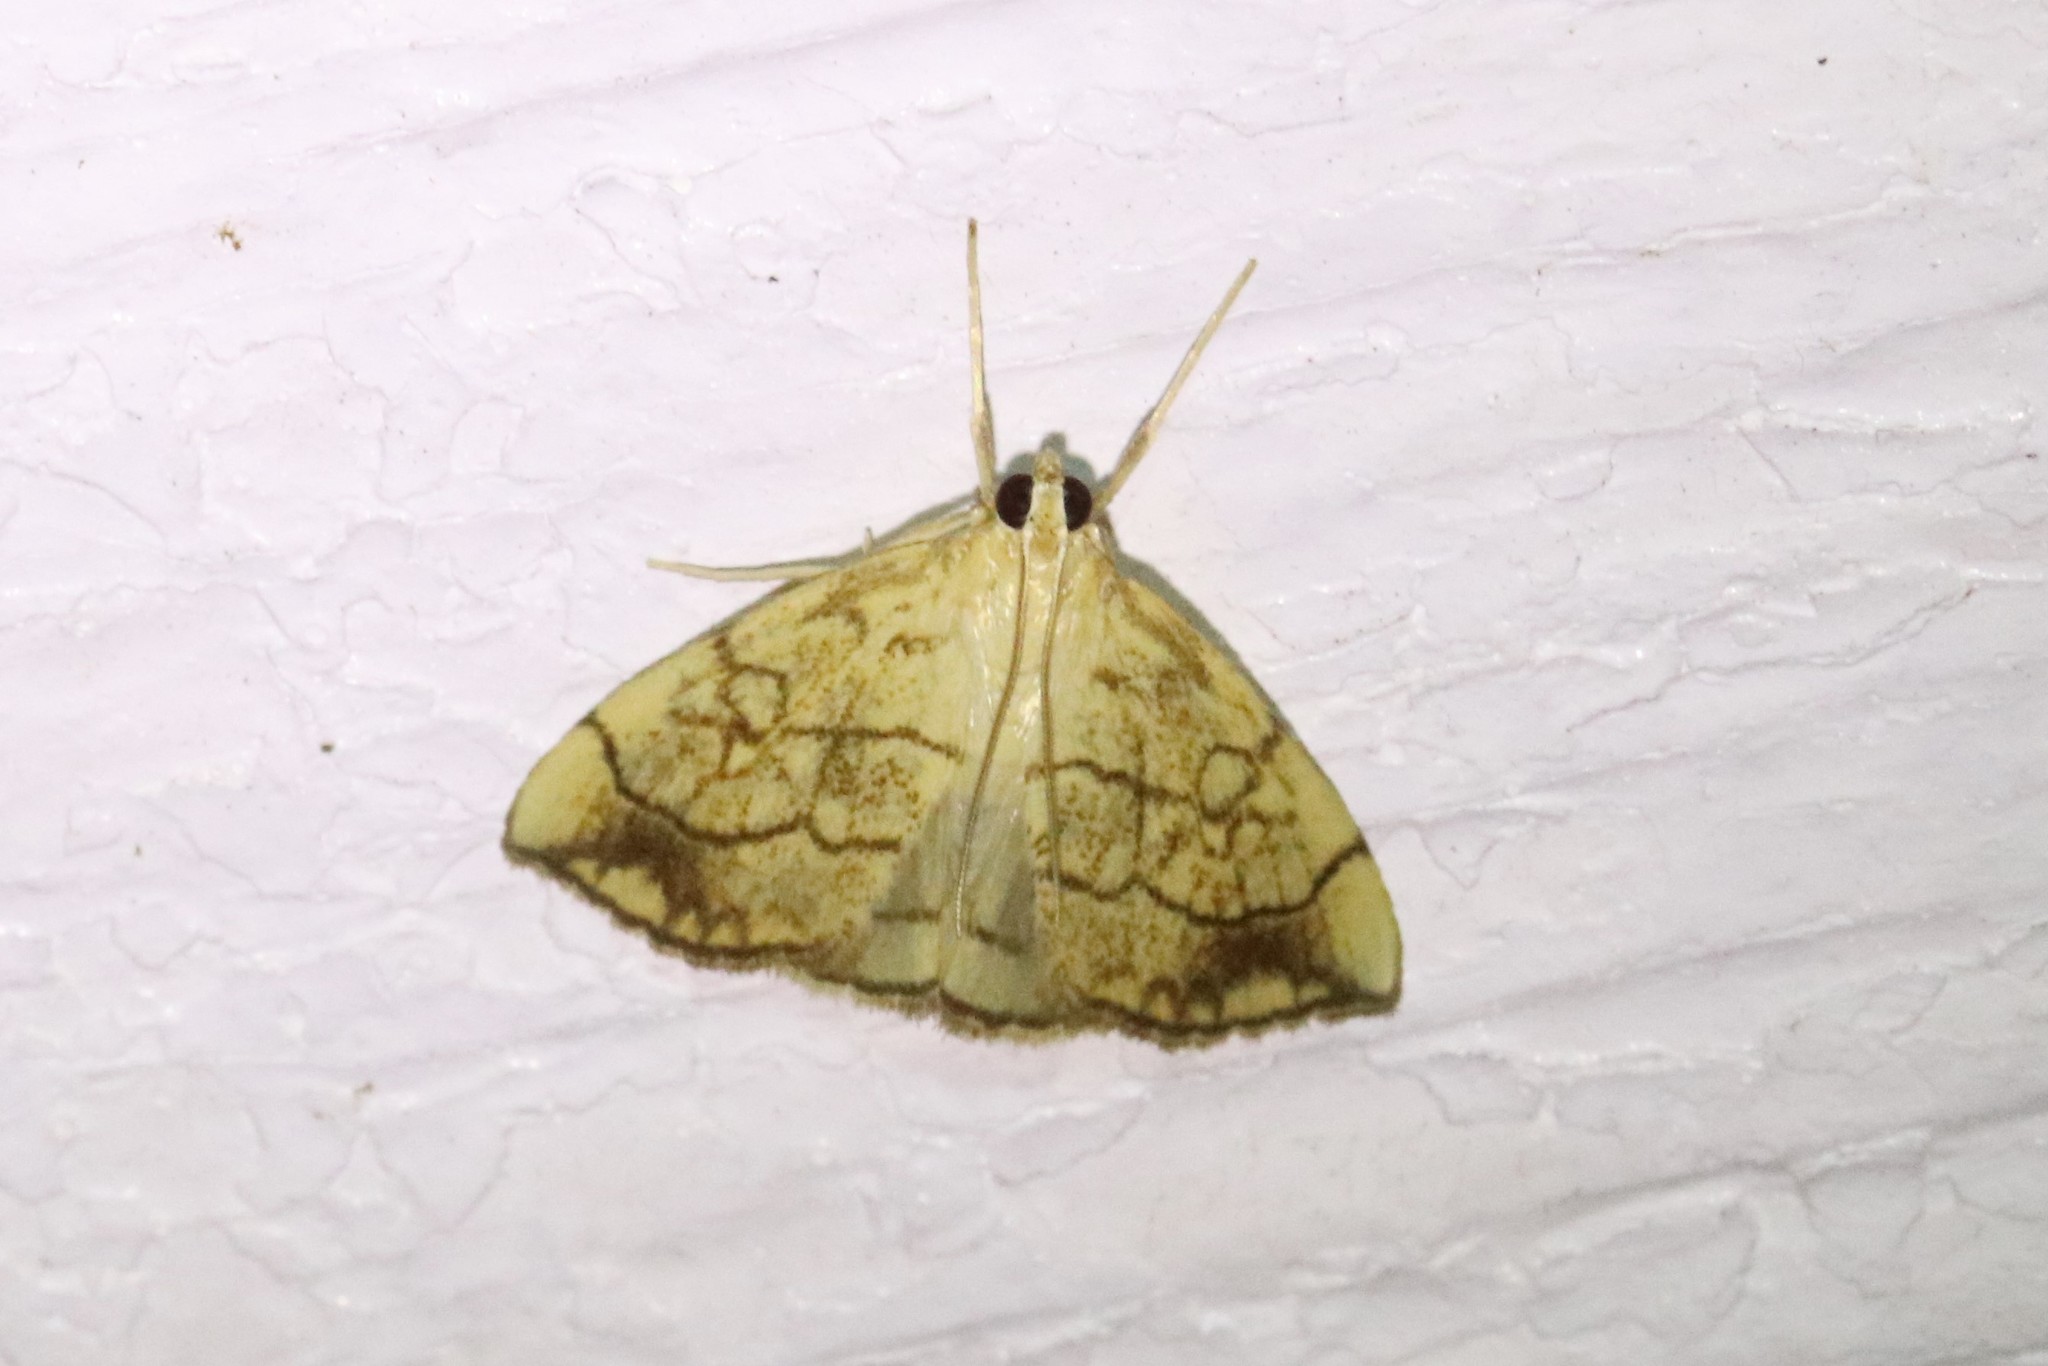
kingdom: Animalia
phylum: Arthropoda
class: Insecta
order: Lepidoptera
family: Crambidae
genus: Evergestis
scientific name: Evergestis pallidata
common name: Chequered pearl
